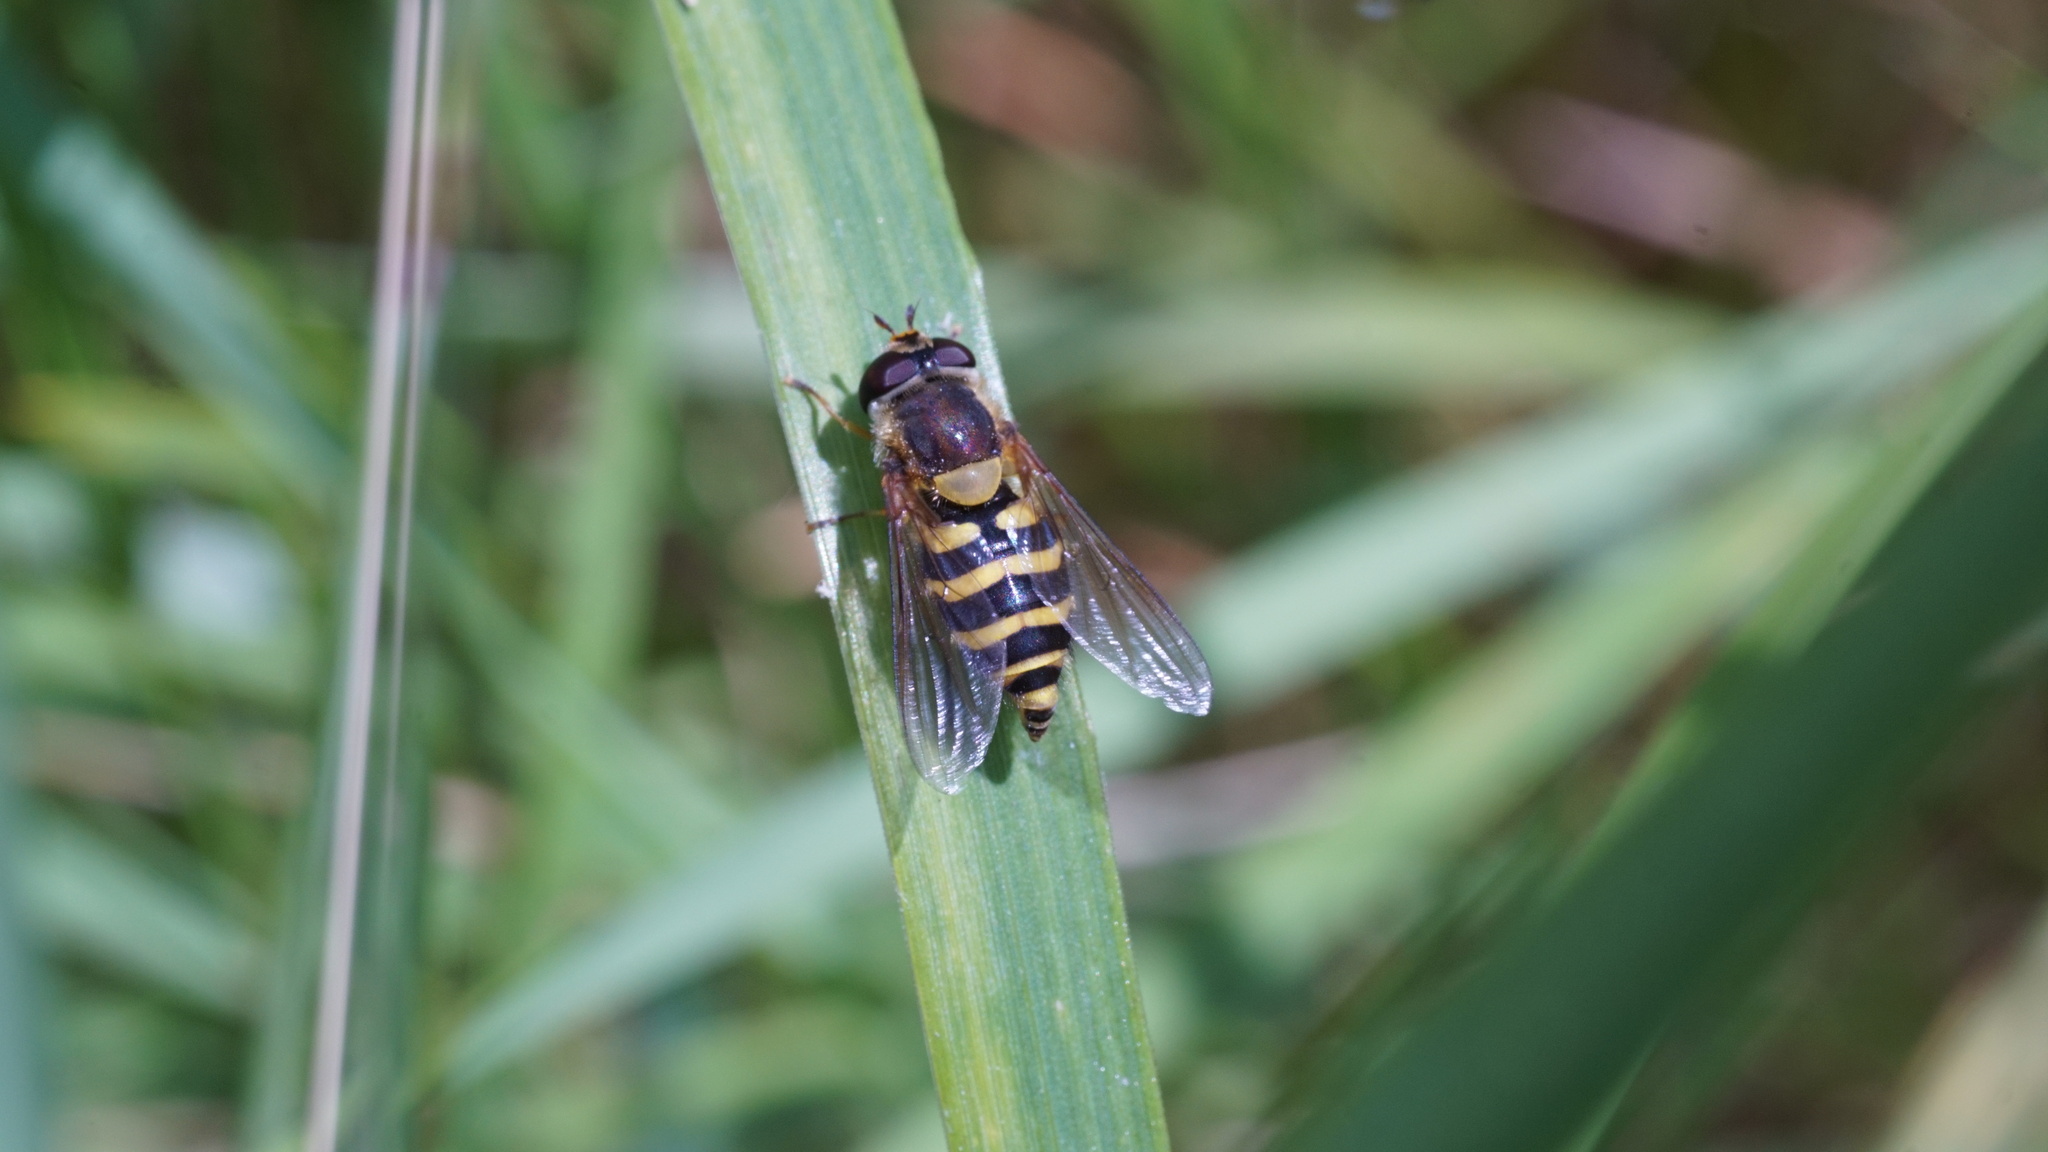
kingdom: Animalia
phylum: Arthropoda
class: Insecta
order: Diptera
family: Syrphidae
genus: Syrphus
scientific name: Syrphus
